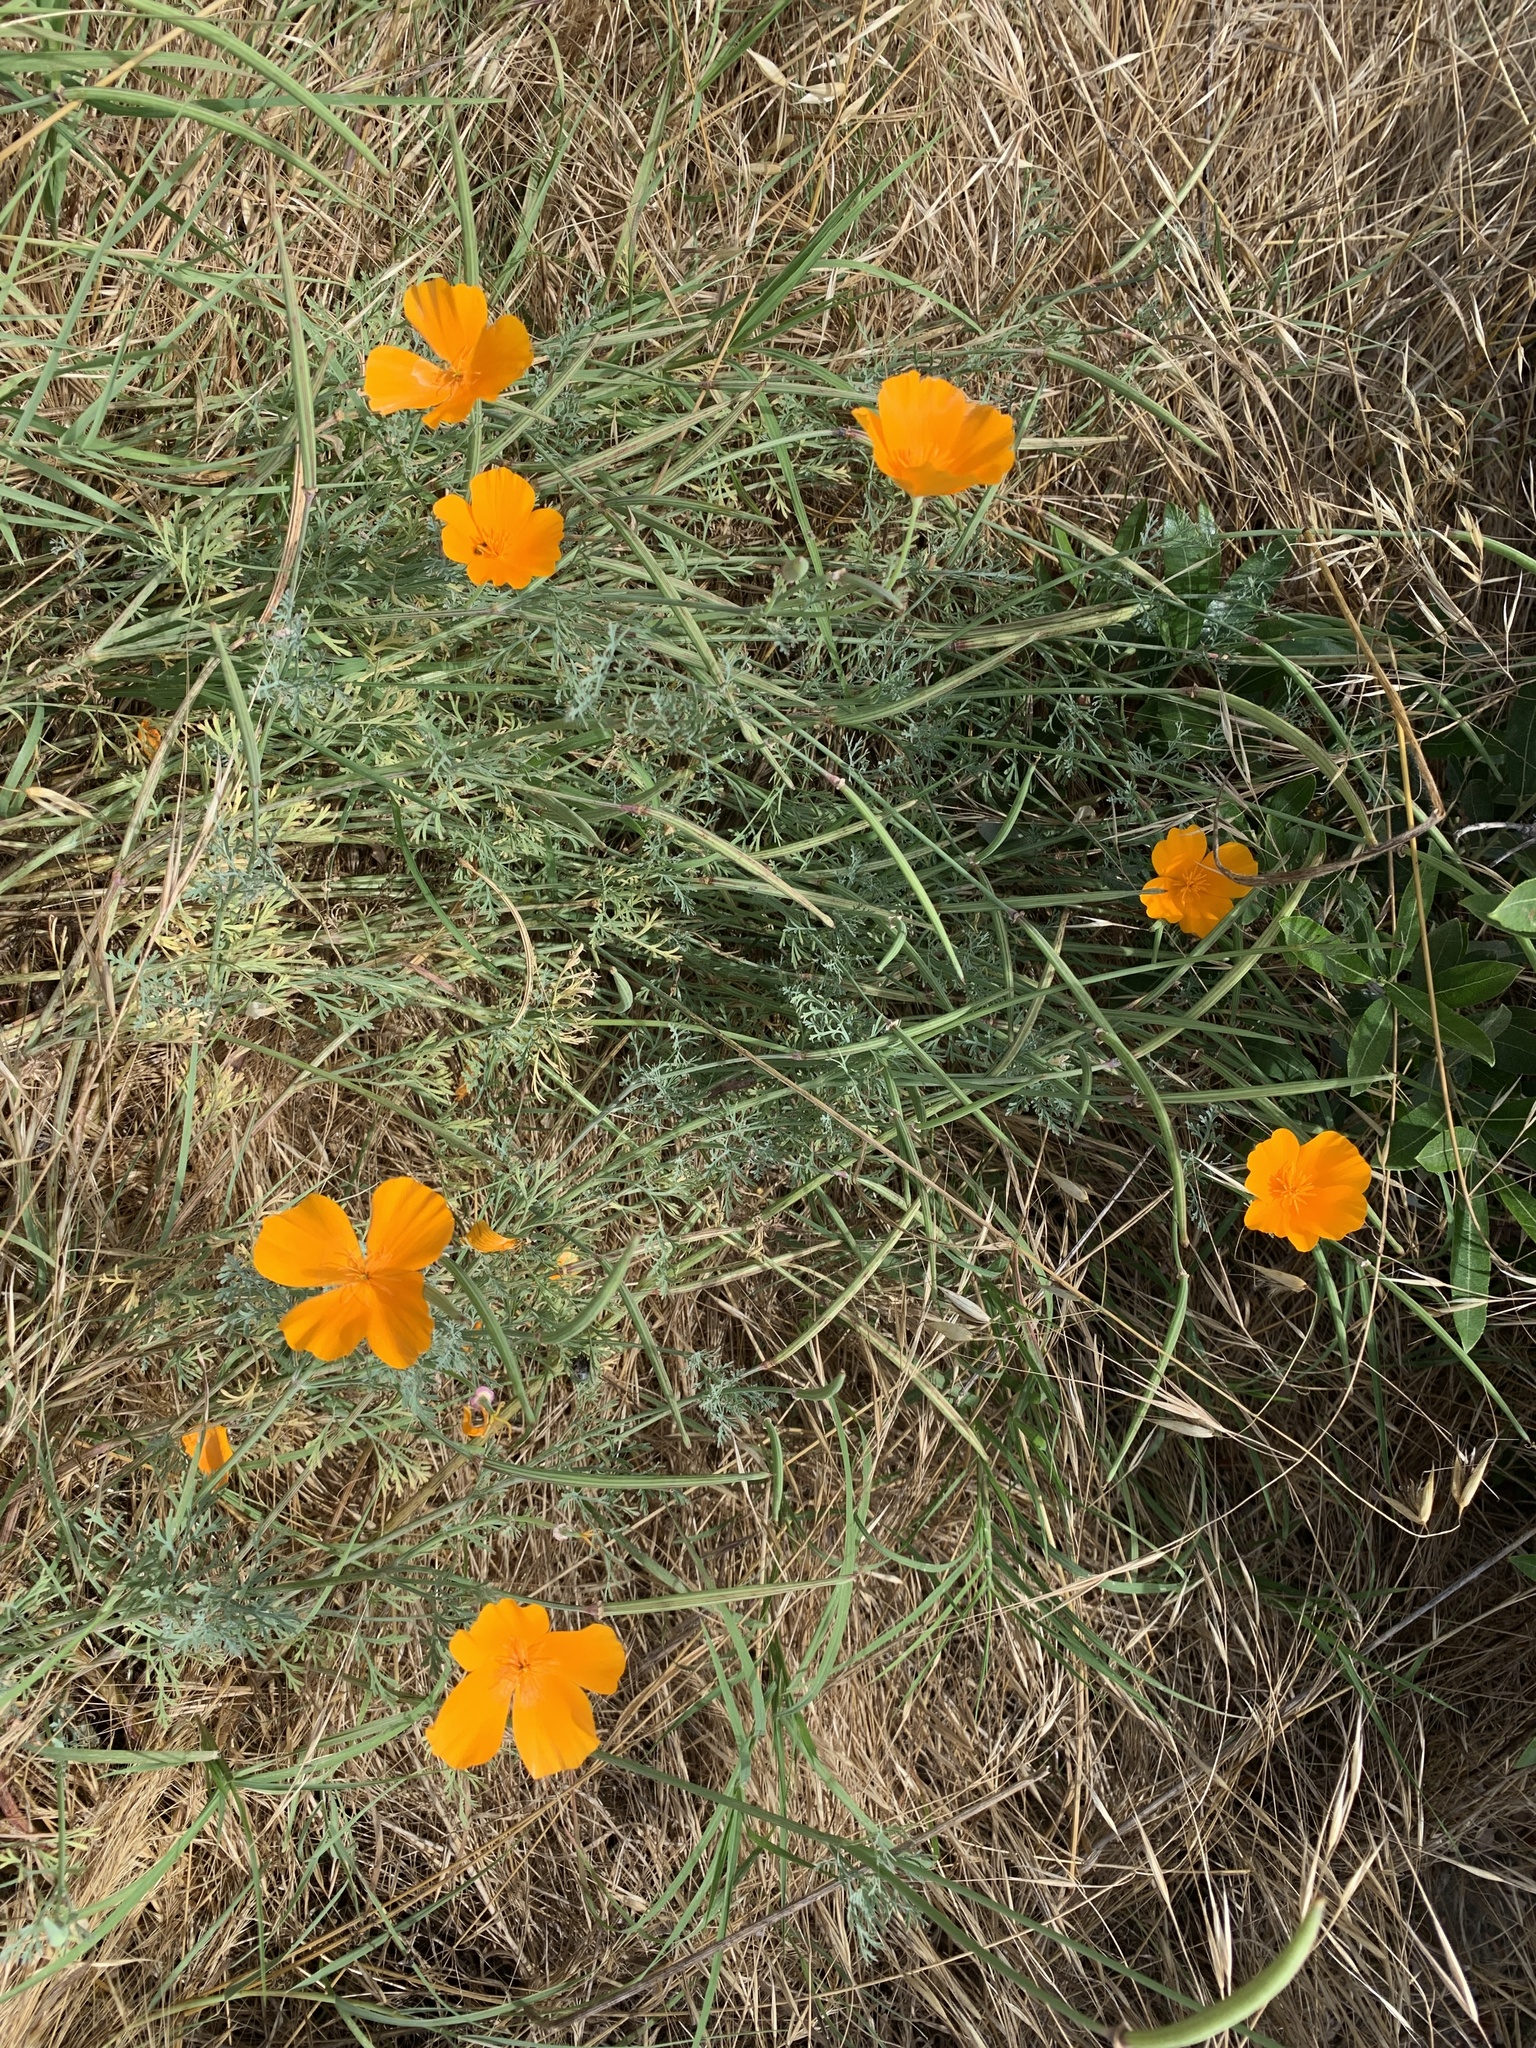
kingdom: Plantae
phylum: Tracheophyta
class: Magnoliopsida
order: Ranunculales
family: Papaveraceae
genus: Eschscholzia
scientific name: Eschscholzia californica
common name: California poppy
